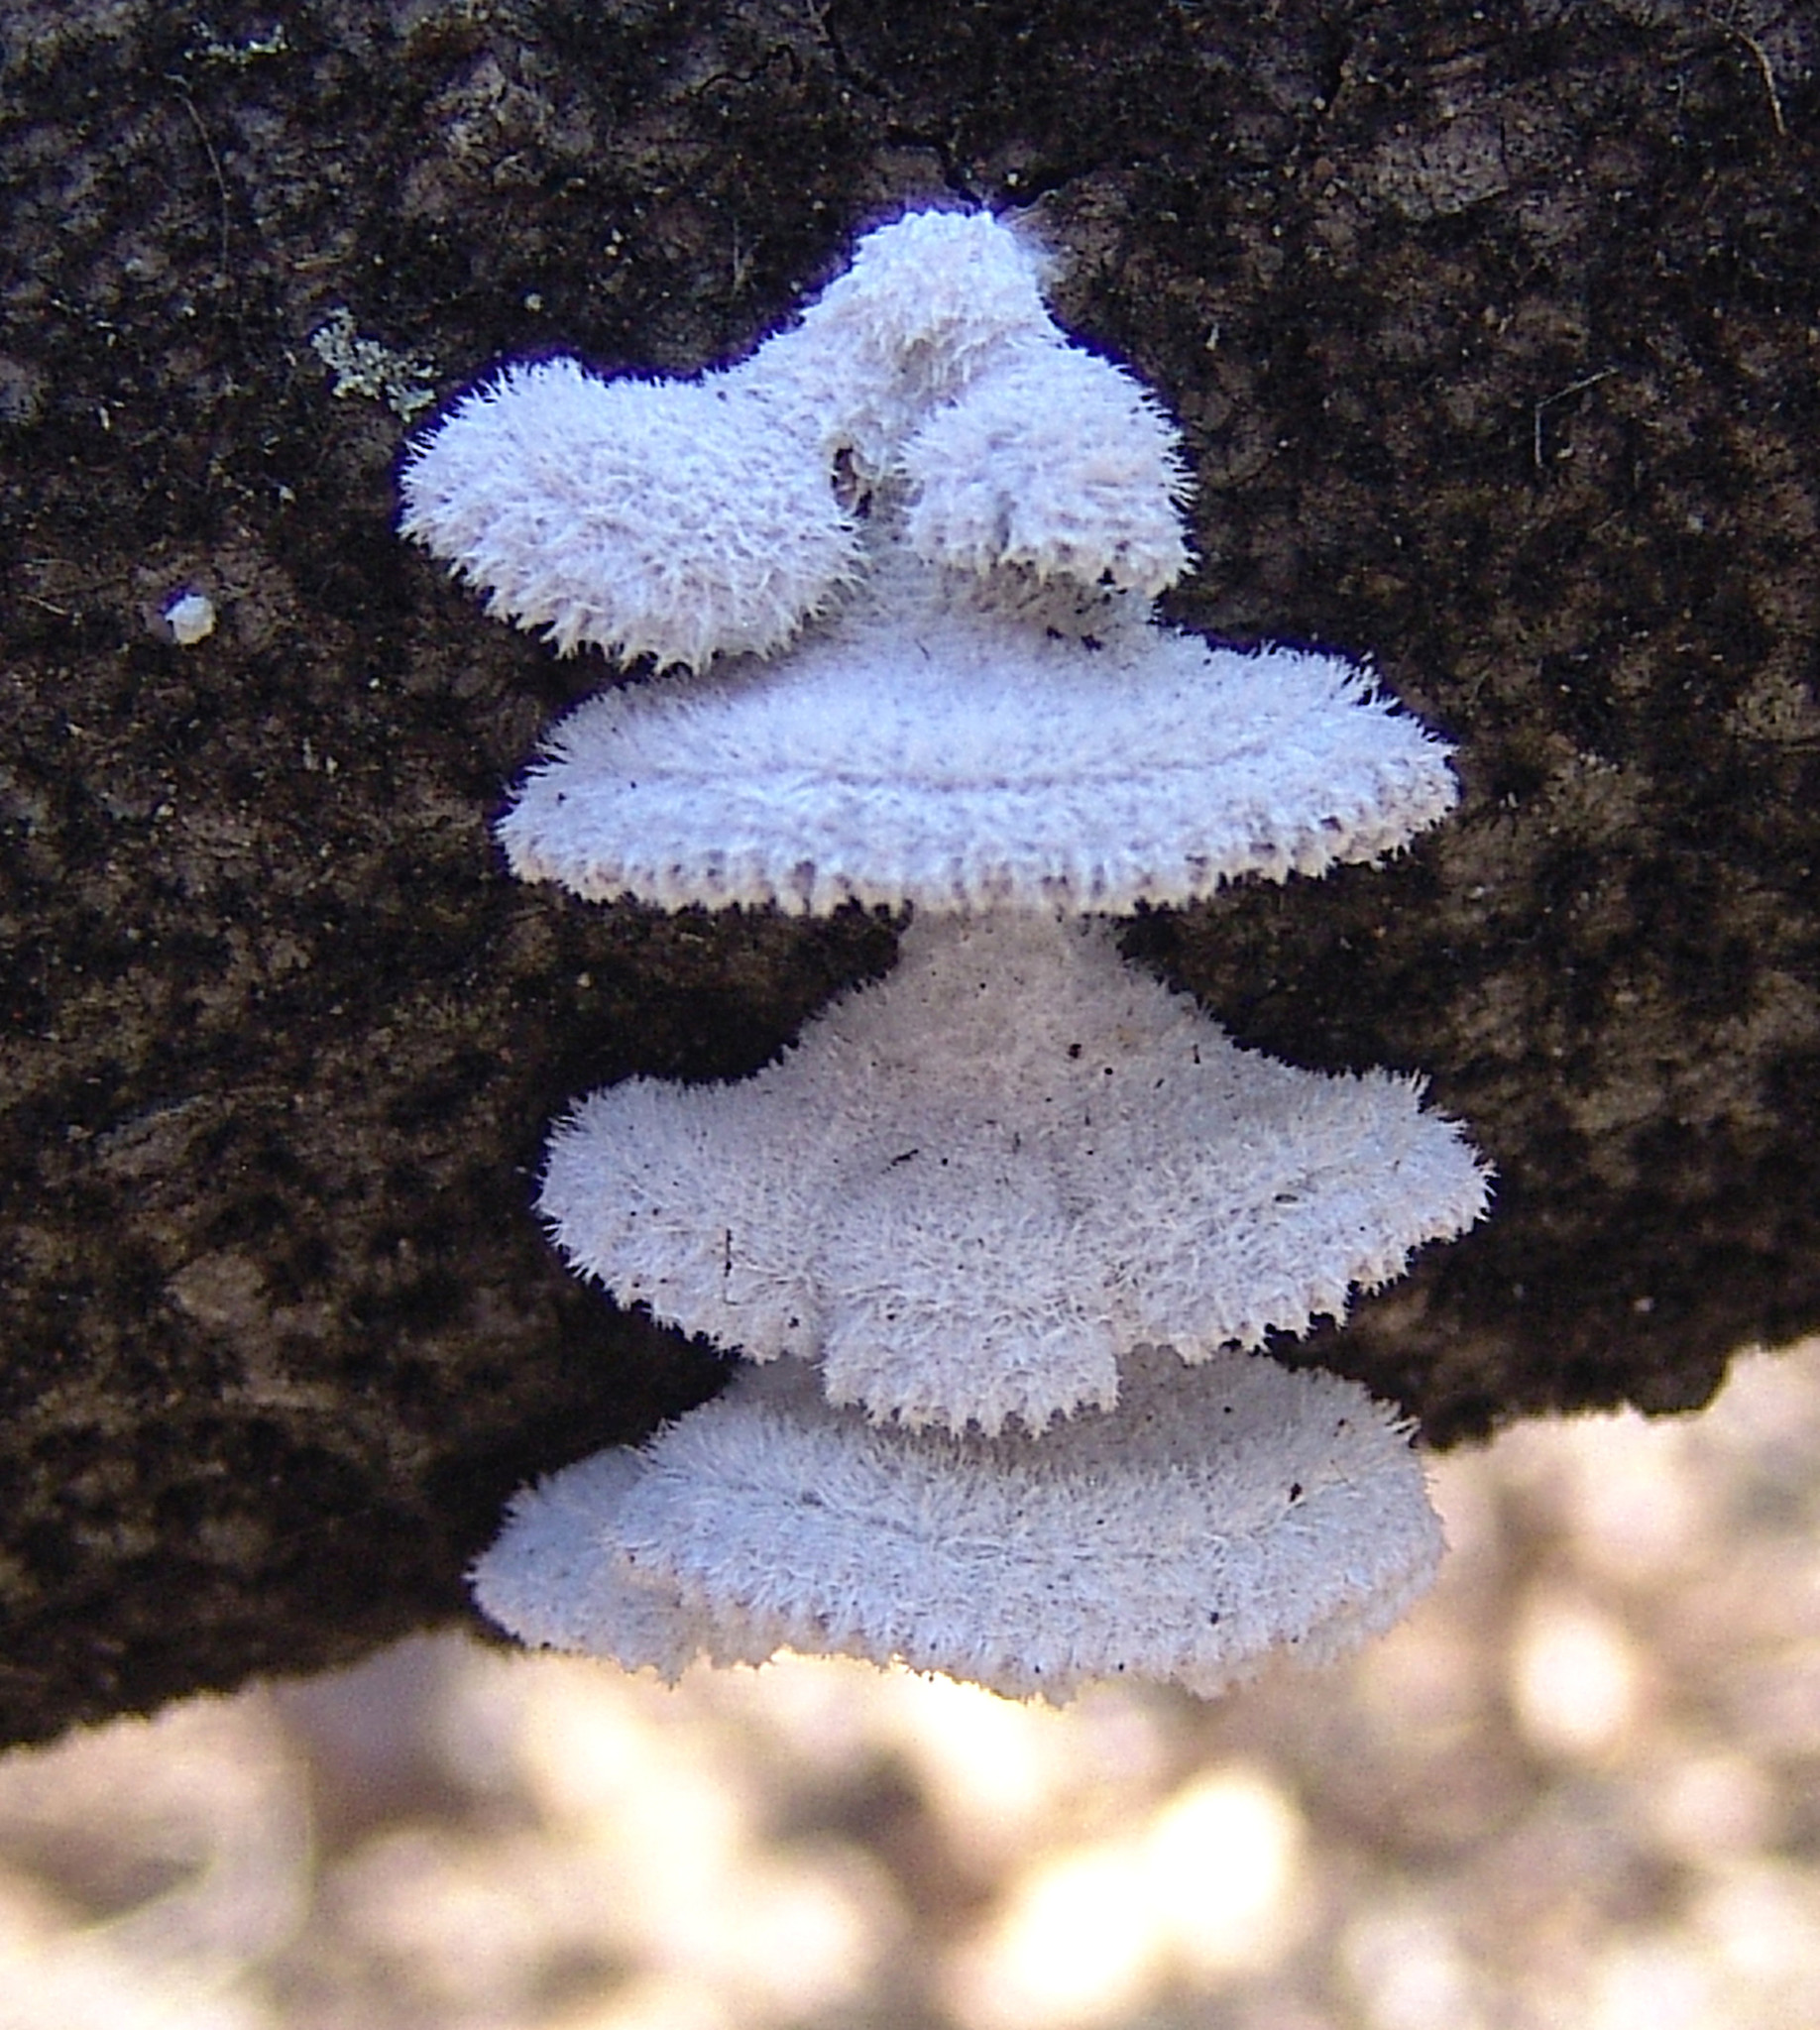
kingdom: Fungi
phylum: Basidiomycota
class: Agaricomycetes
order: Agaricales
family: Schizophyllaceae
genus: Schizophyllum
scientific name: Schizophyllum commune
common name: Common porecrust
